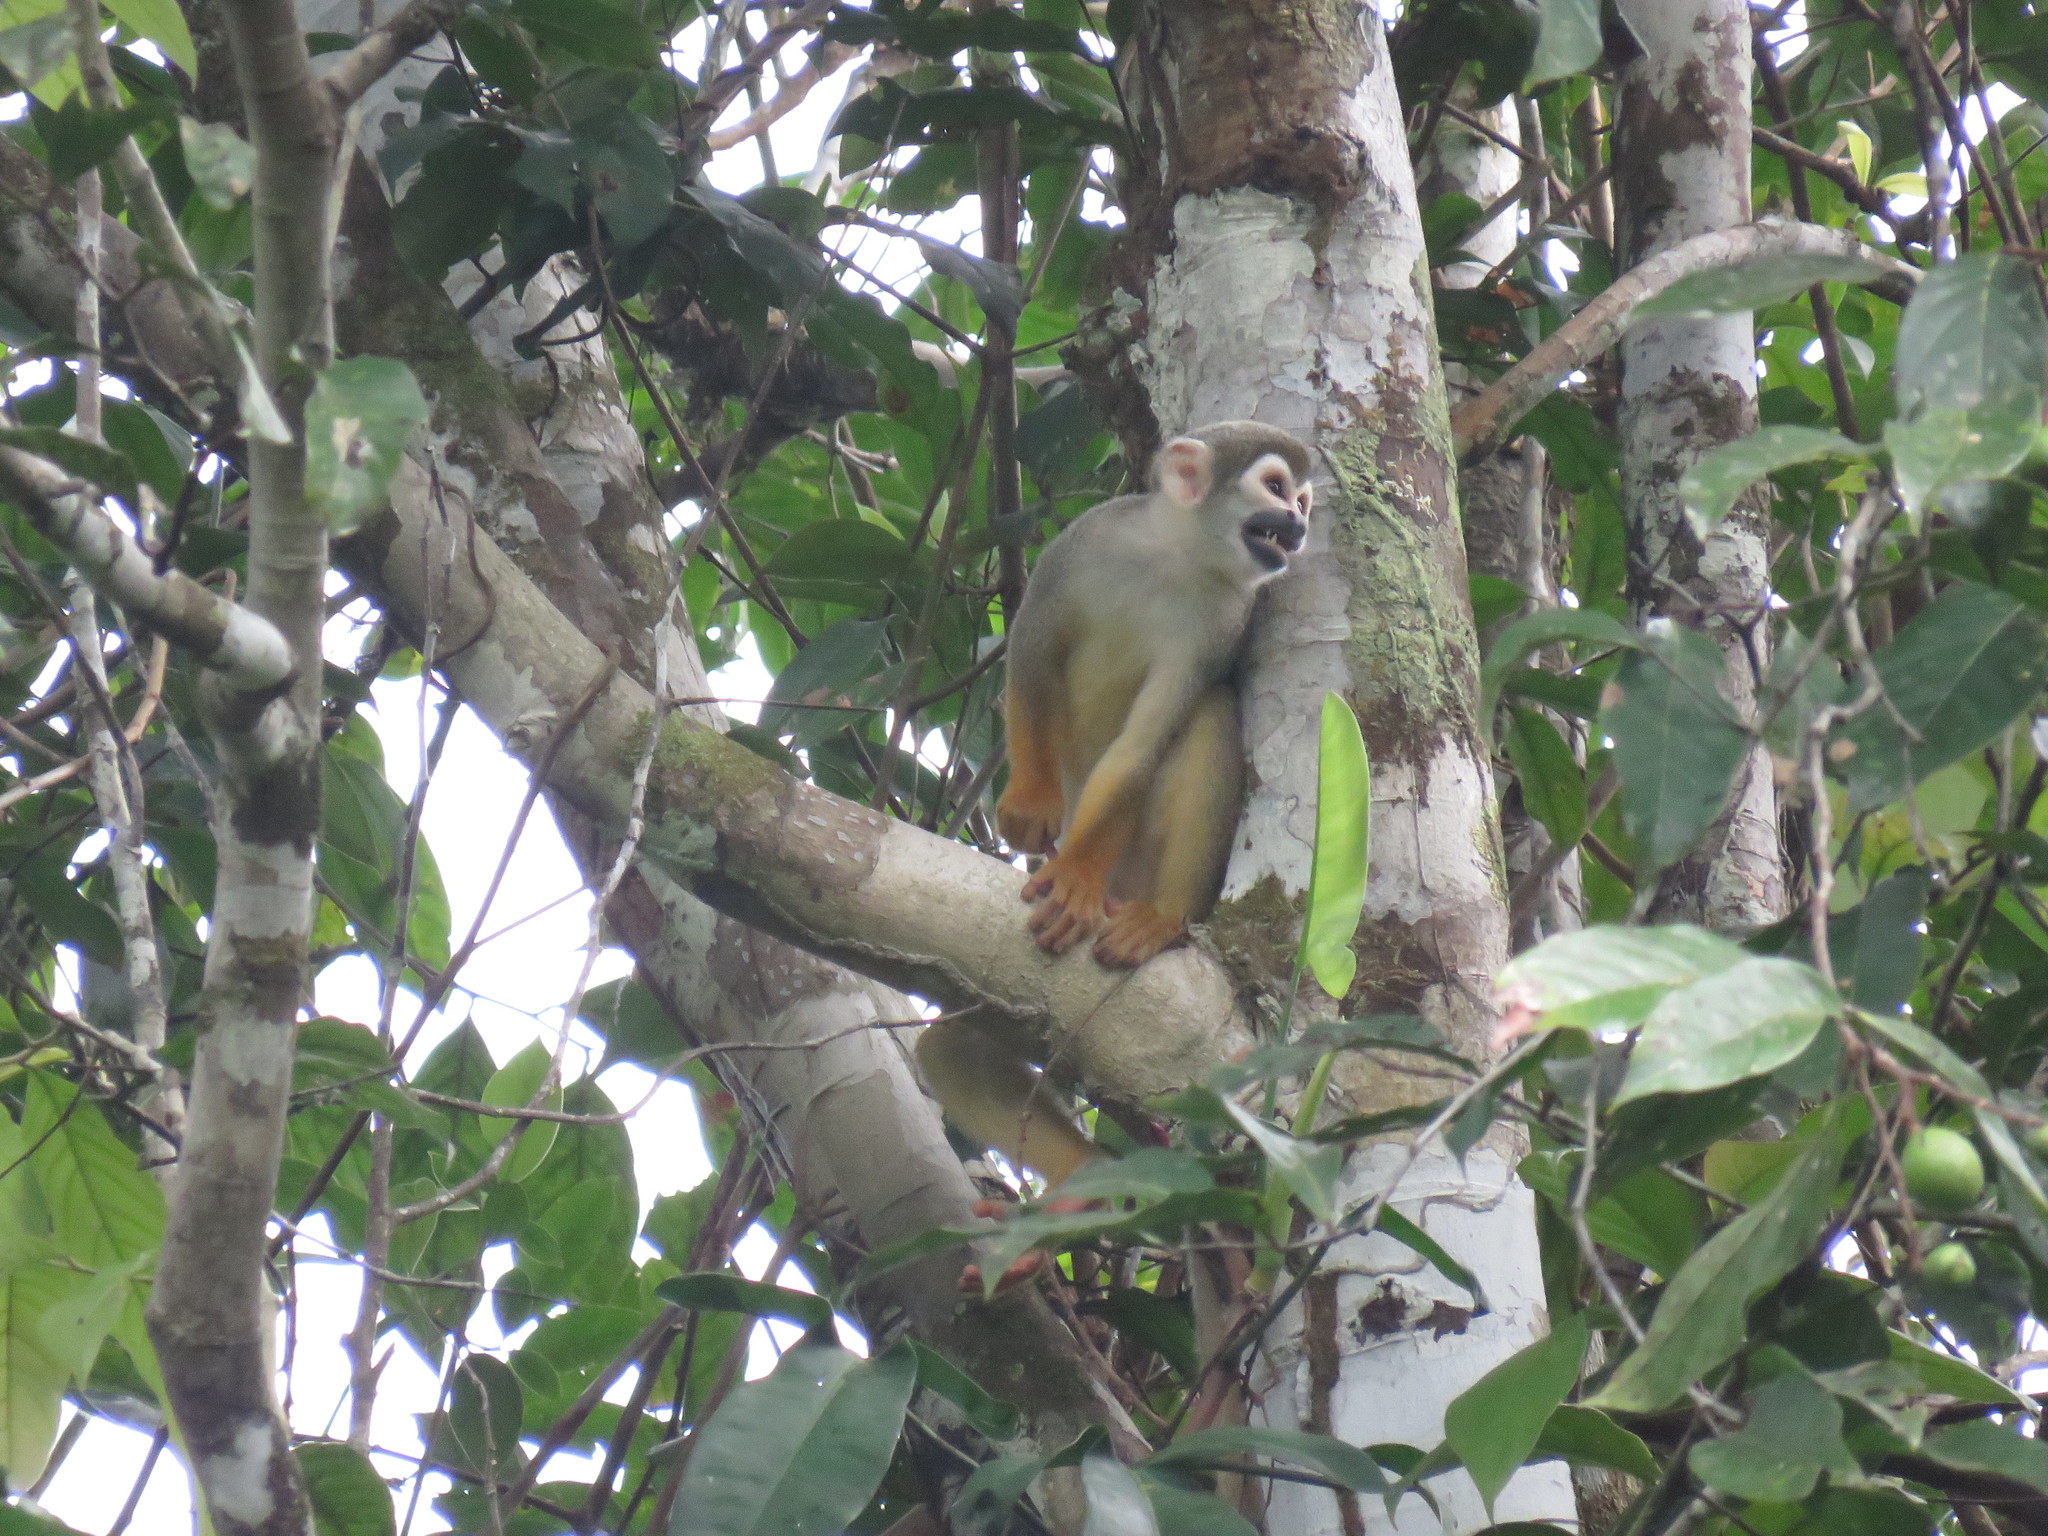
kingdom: Animalia
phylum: Chordata
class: Mammalia
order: Primates
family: Cebidae
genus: Saimiri
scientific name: Saimiri cassiquiarensis
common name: Humboldt’s squirrel monkey
